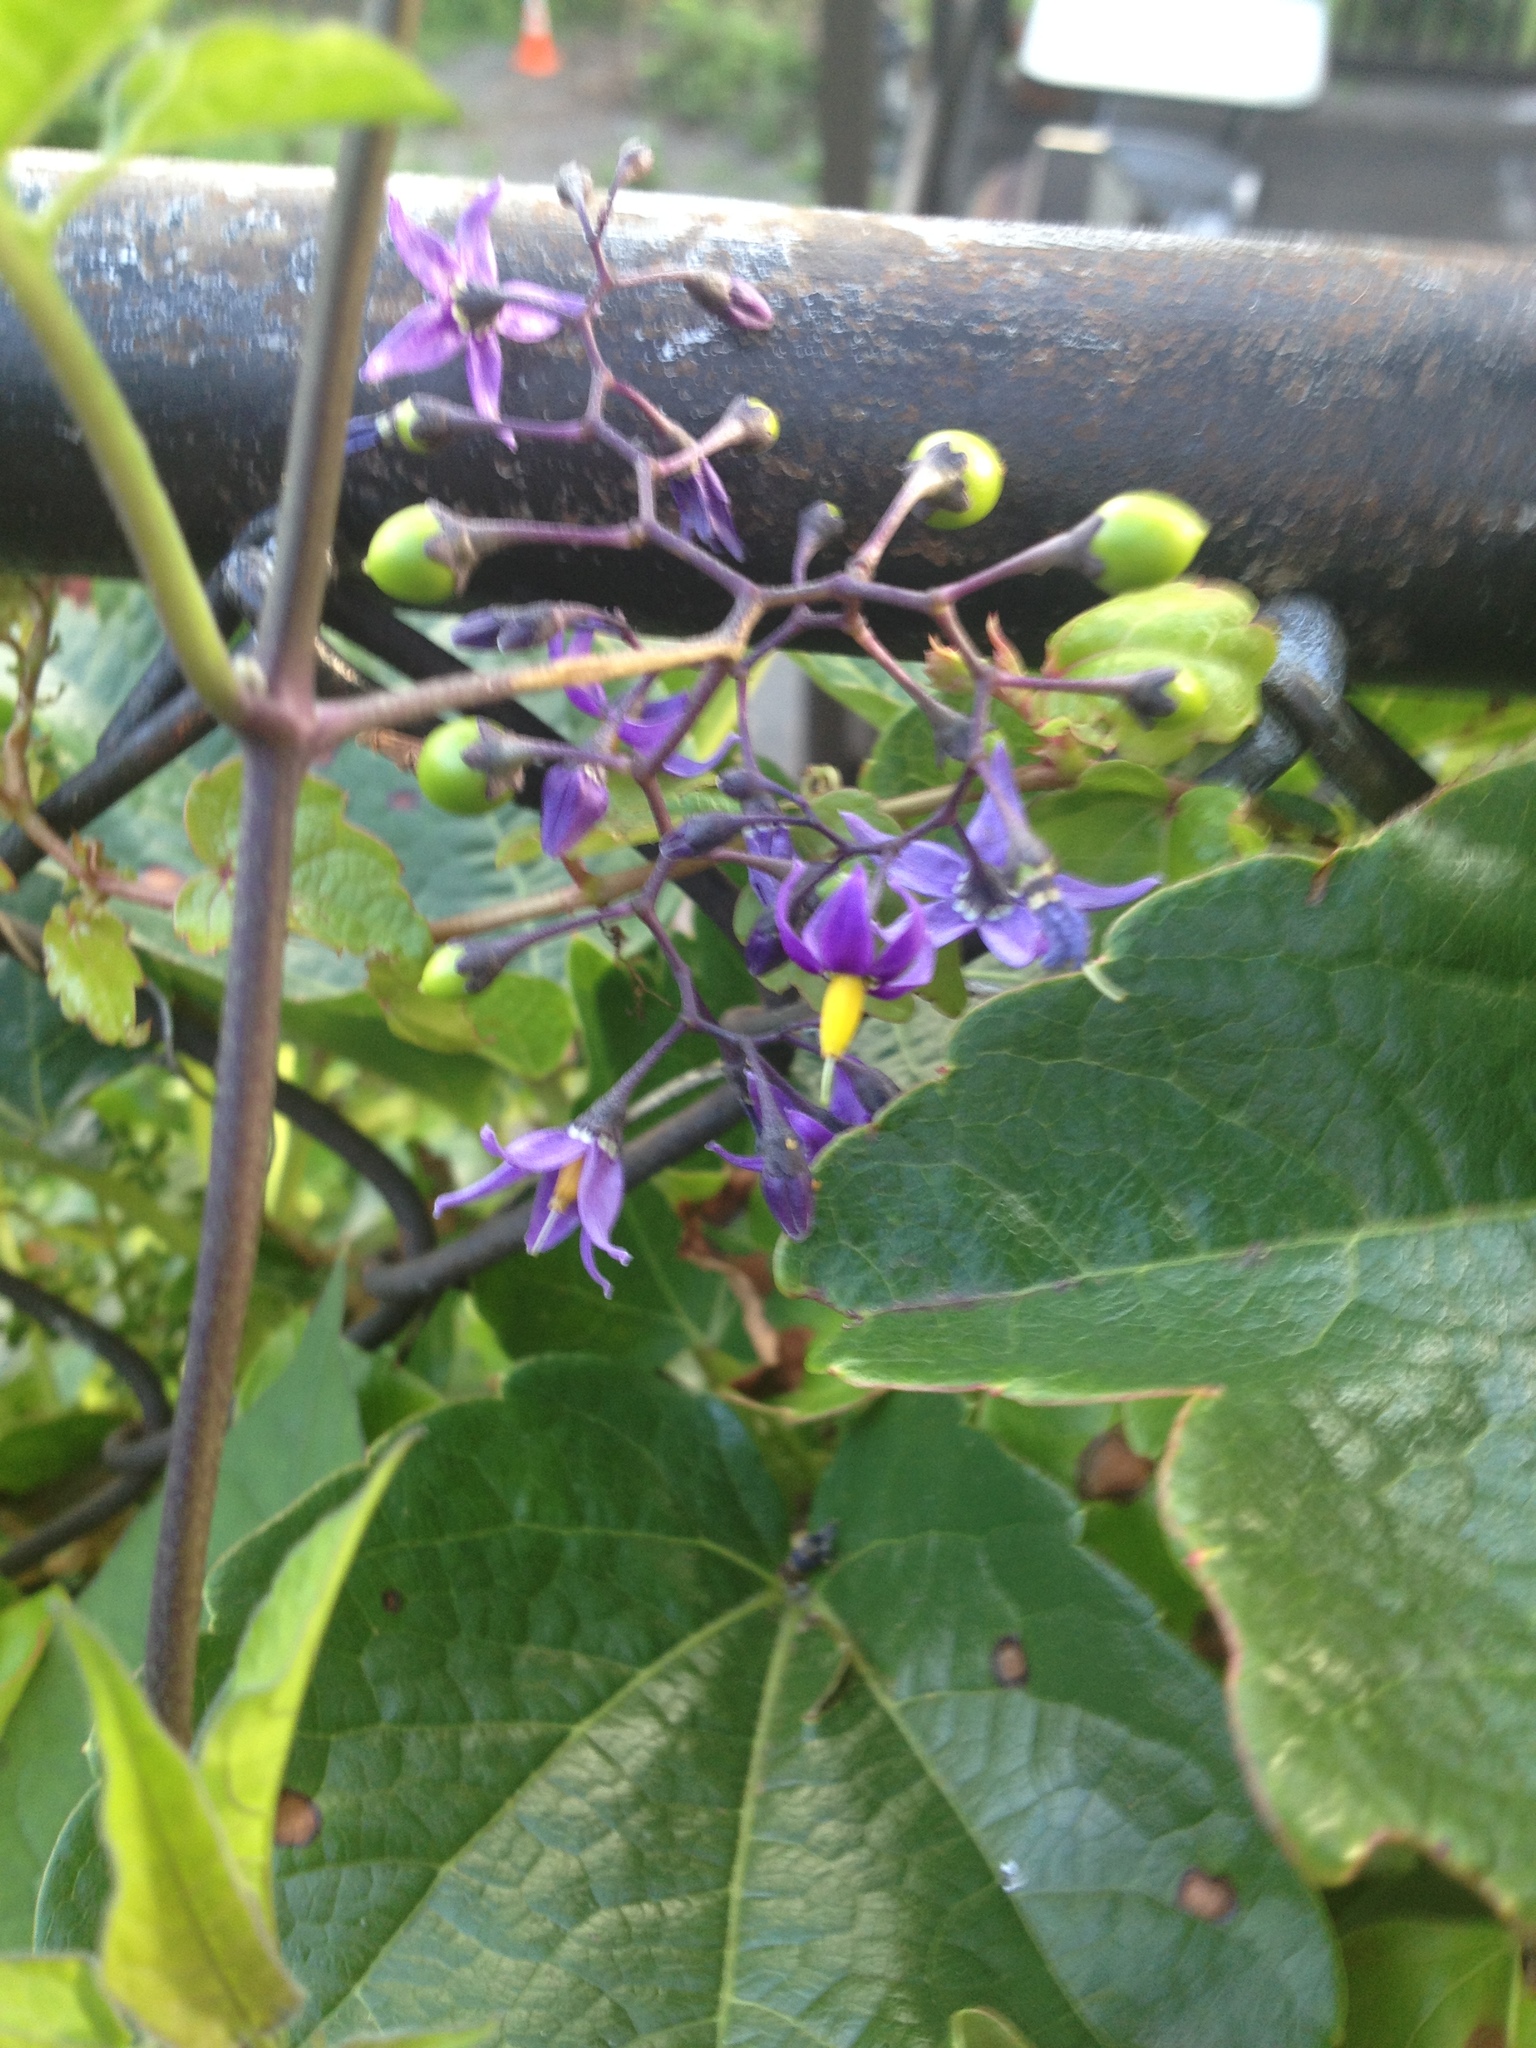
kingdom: Plantae
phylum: Tracheophyta
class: Magnoliopsida
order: Solanales
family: Solanaceae
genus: Solanum
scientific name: Solanum dulcamara
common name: Climbing nightshade
